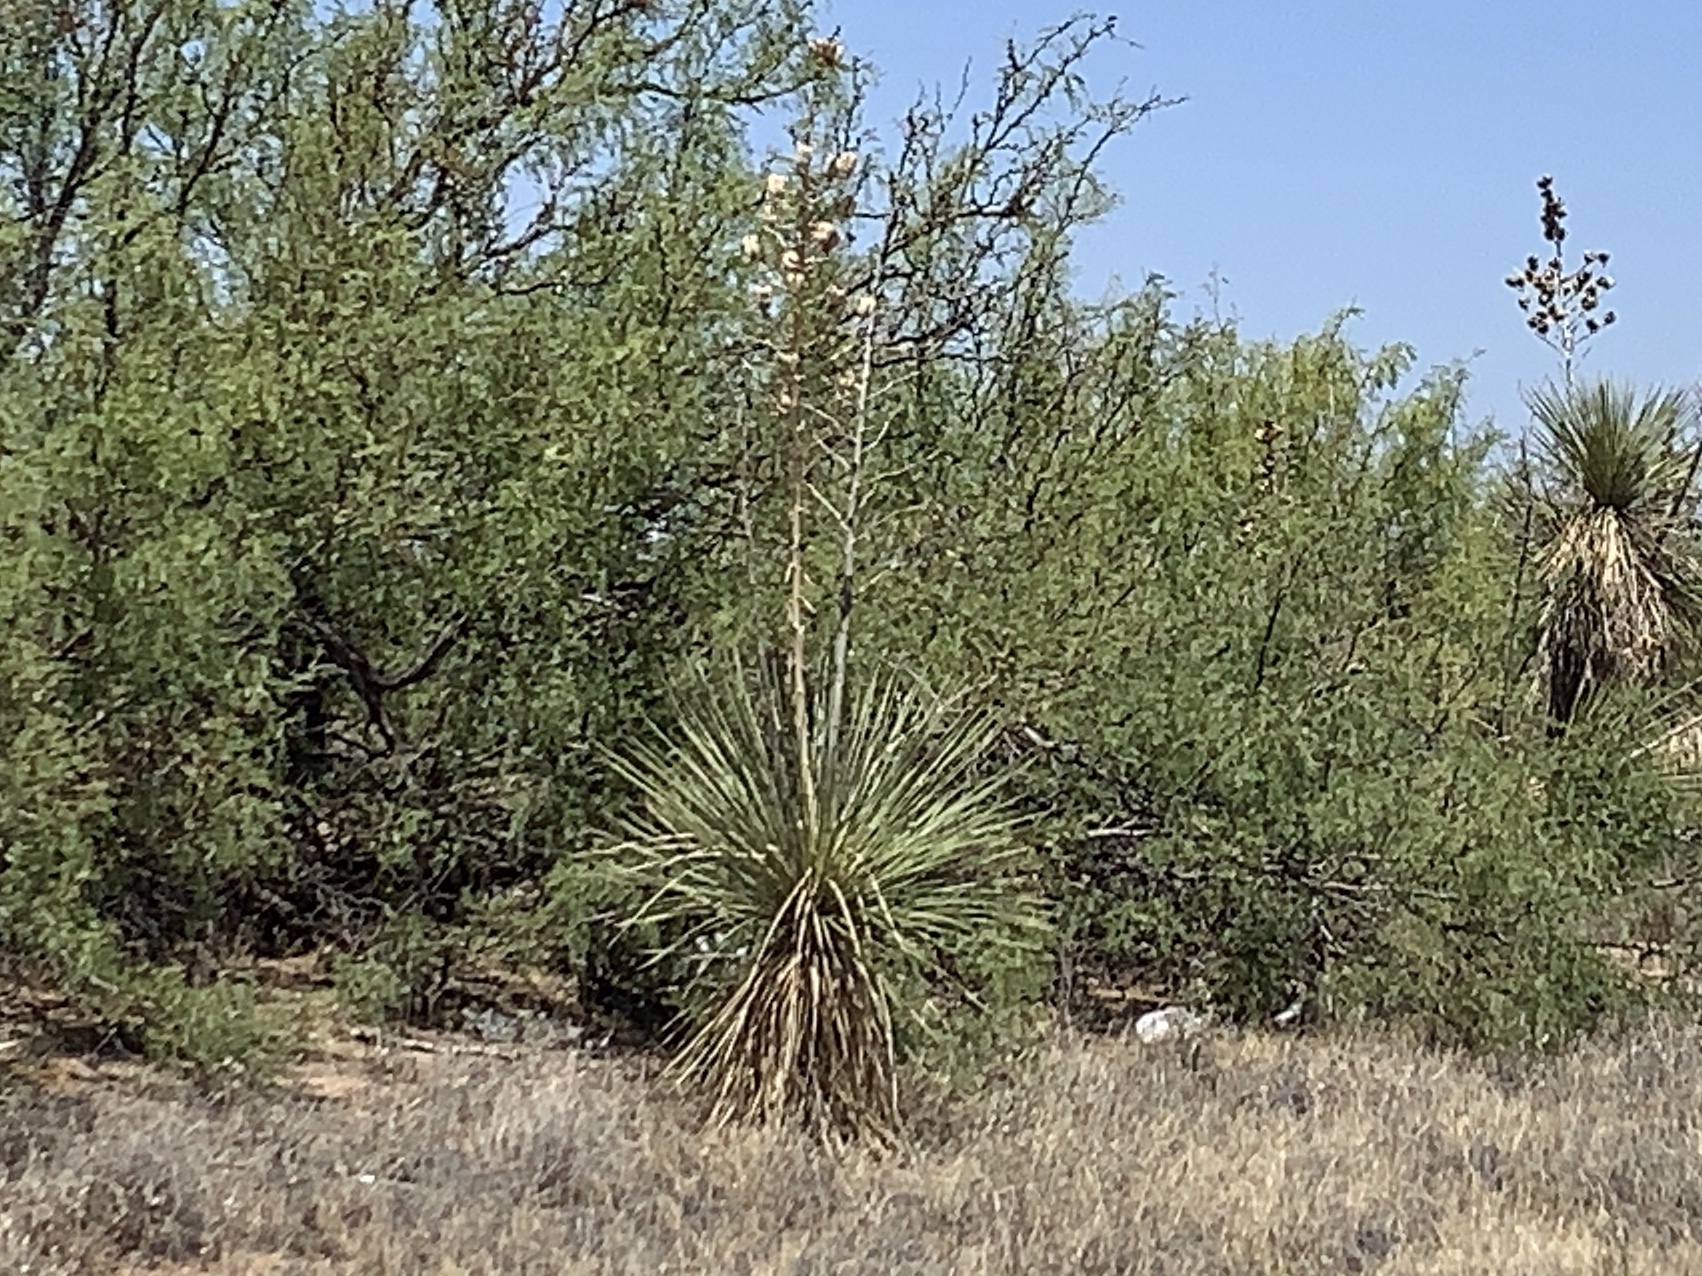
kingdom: Plantae
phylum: Tracheophyta
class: Liliopsida
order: Asparagales
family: Asparagaceae
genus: Yucca
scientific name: Yucca elata
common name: Palmella
